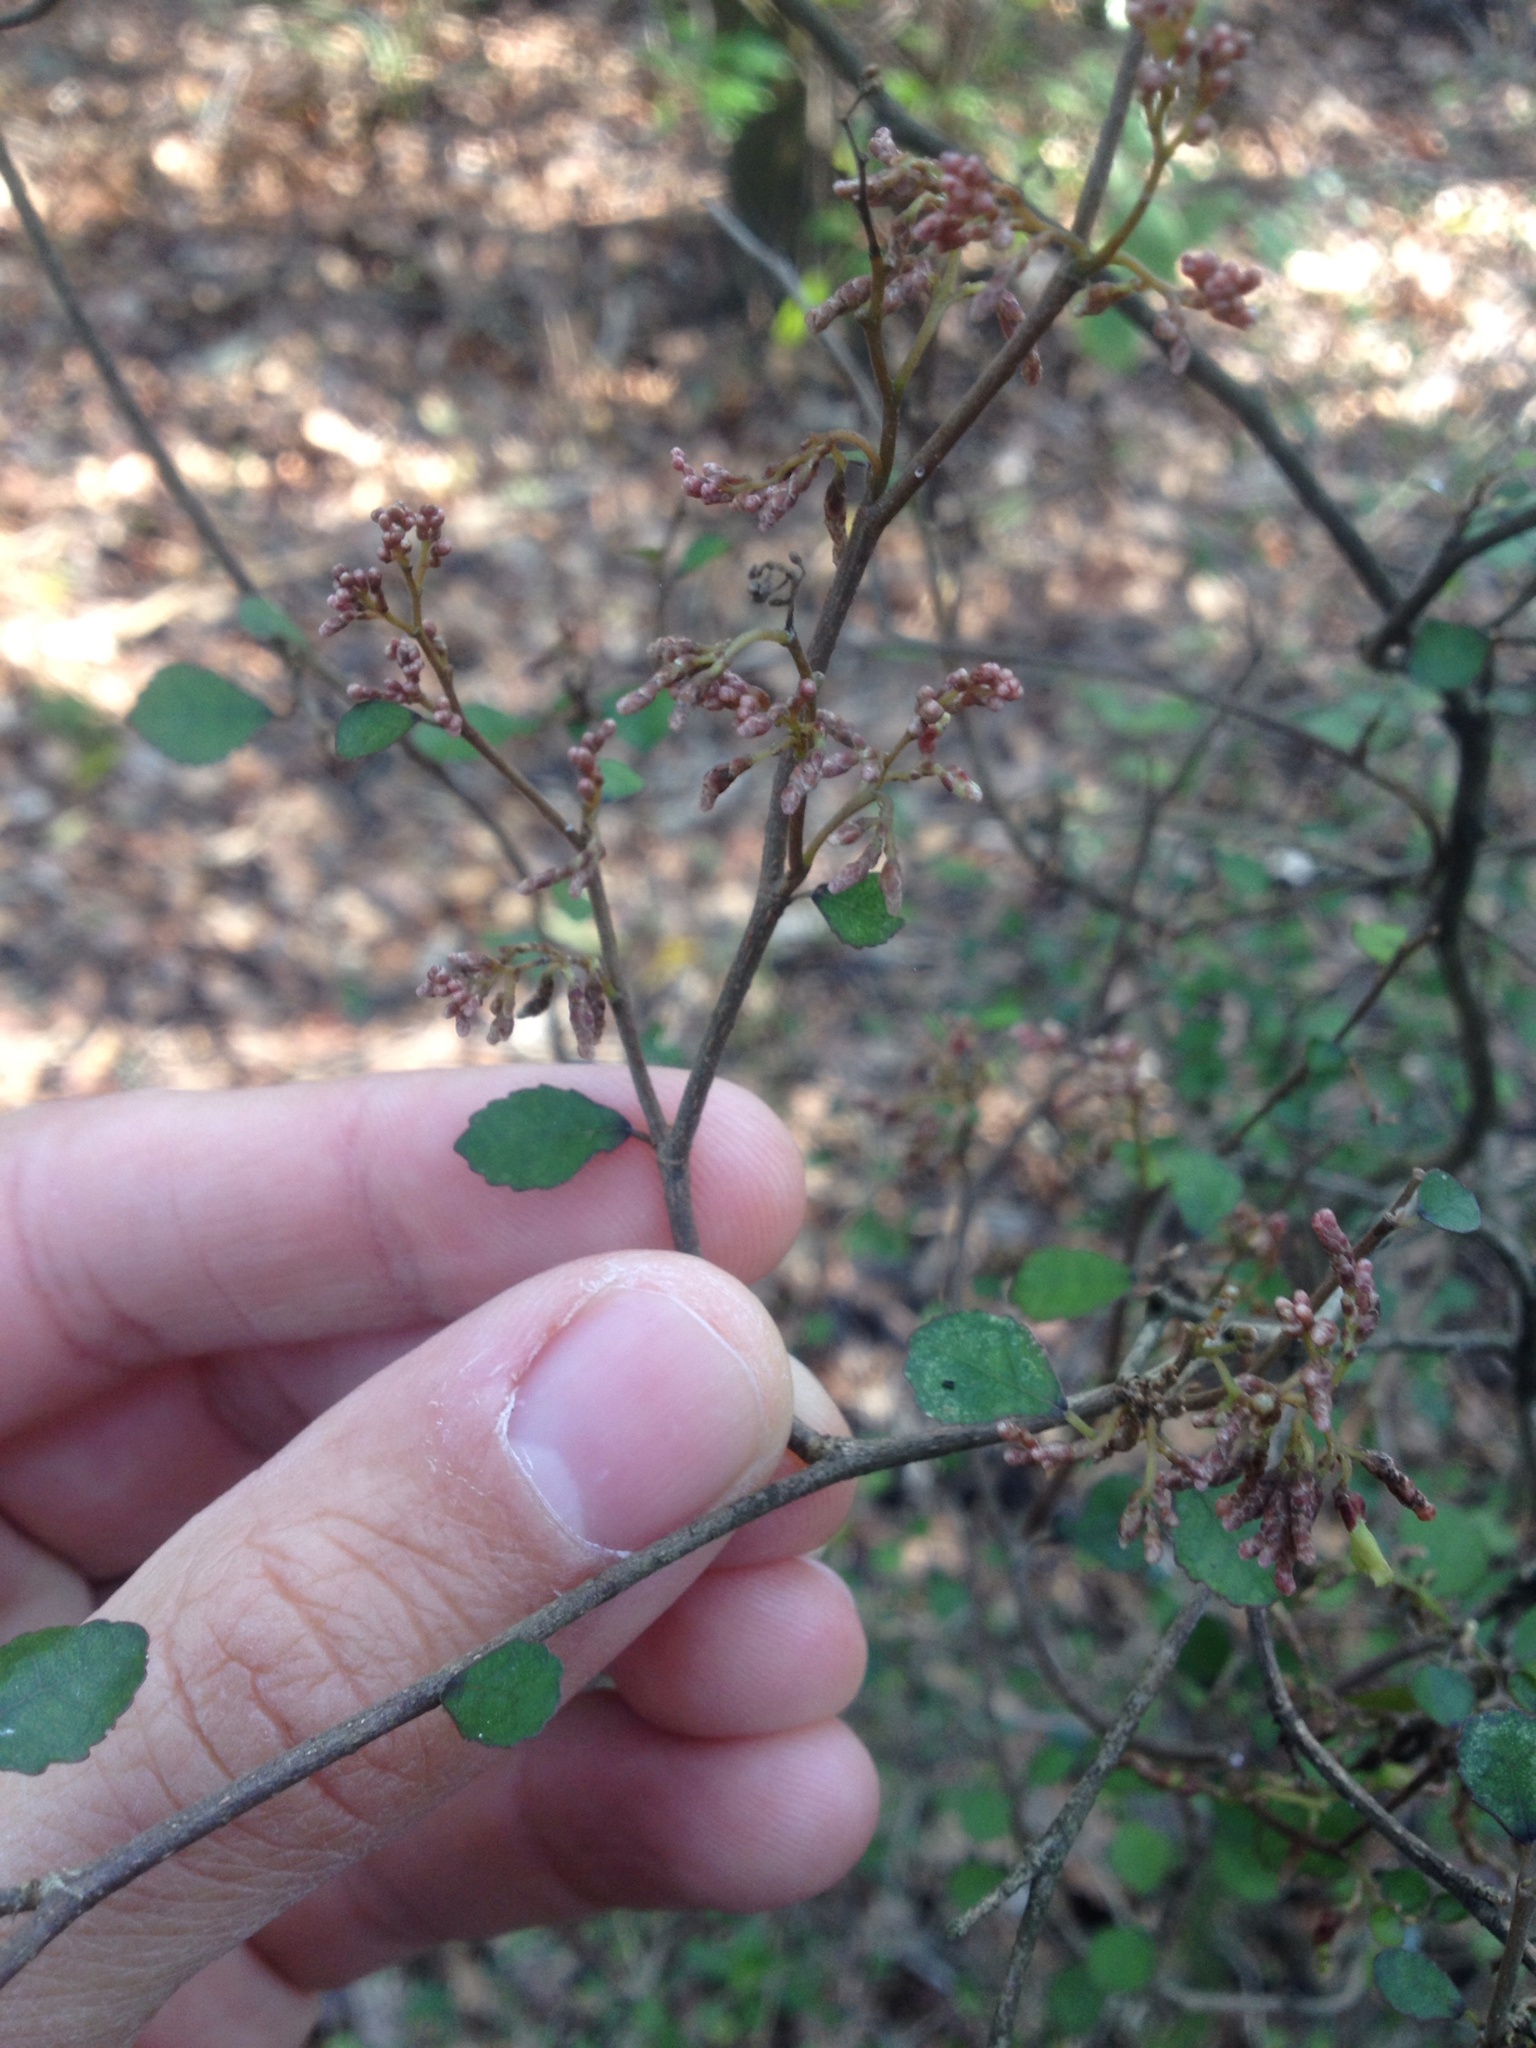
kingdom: Plantae
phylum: Tracheophyta
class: Magnoliopsida
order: Rosales
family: Moraceae
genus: Paratrophis
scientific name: Paratrophis microphylla
